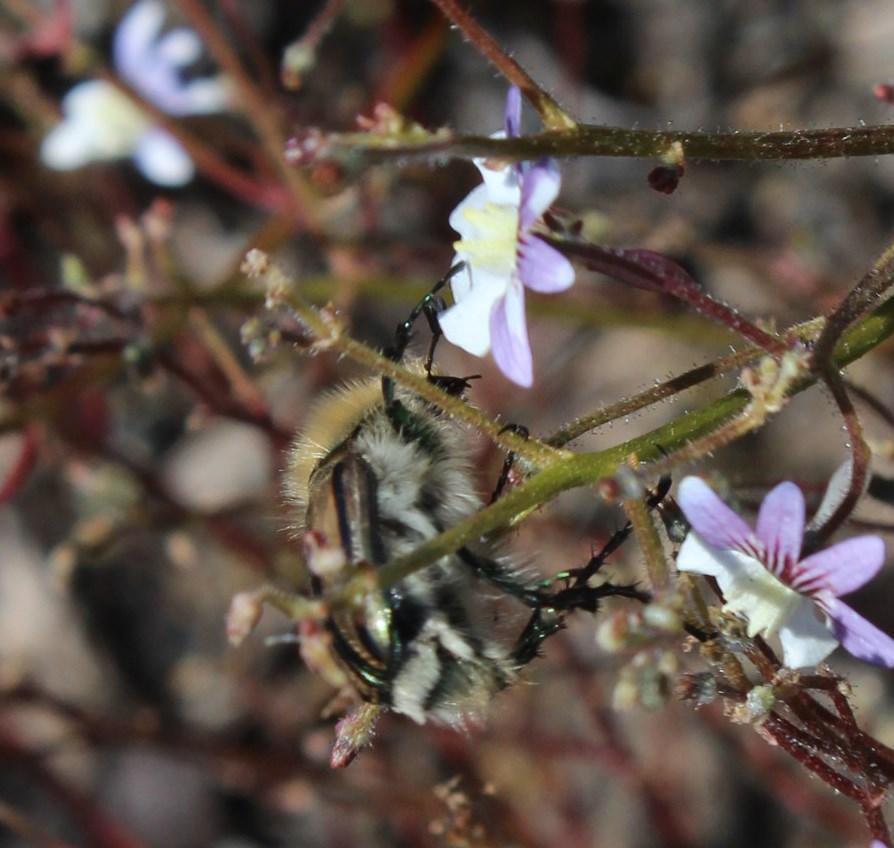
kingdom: Animalia
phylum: Arthropoda
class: Insecta
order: Coleoptera
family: Scarabaeidae
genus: Stegopterus
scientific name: Stegopterus vittatus
